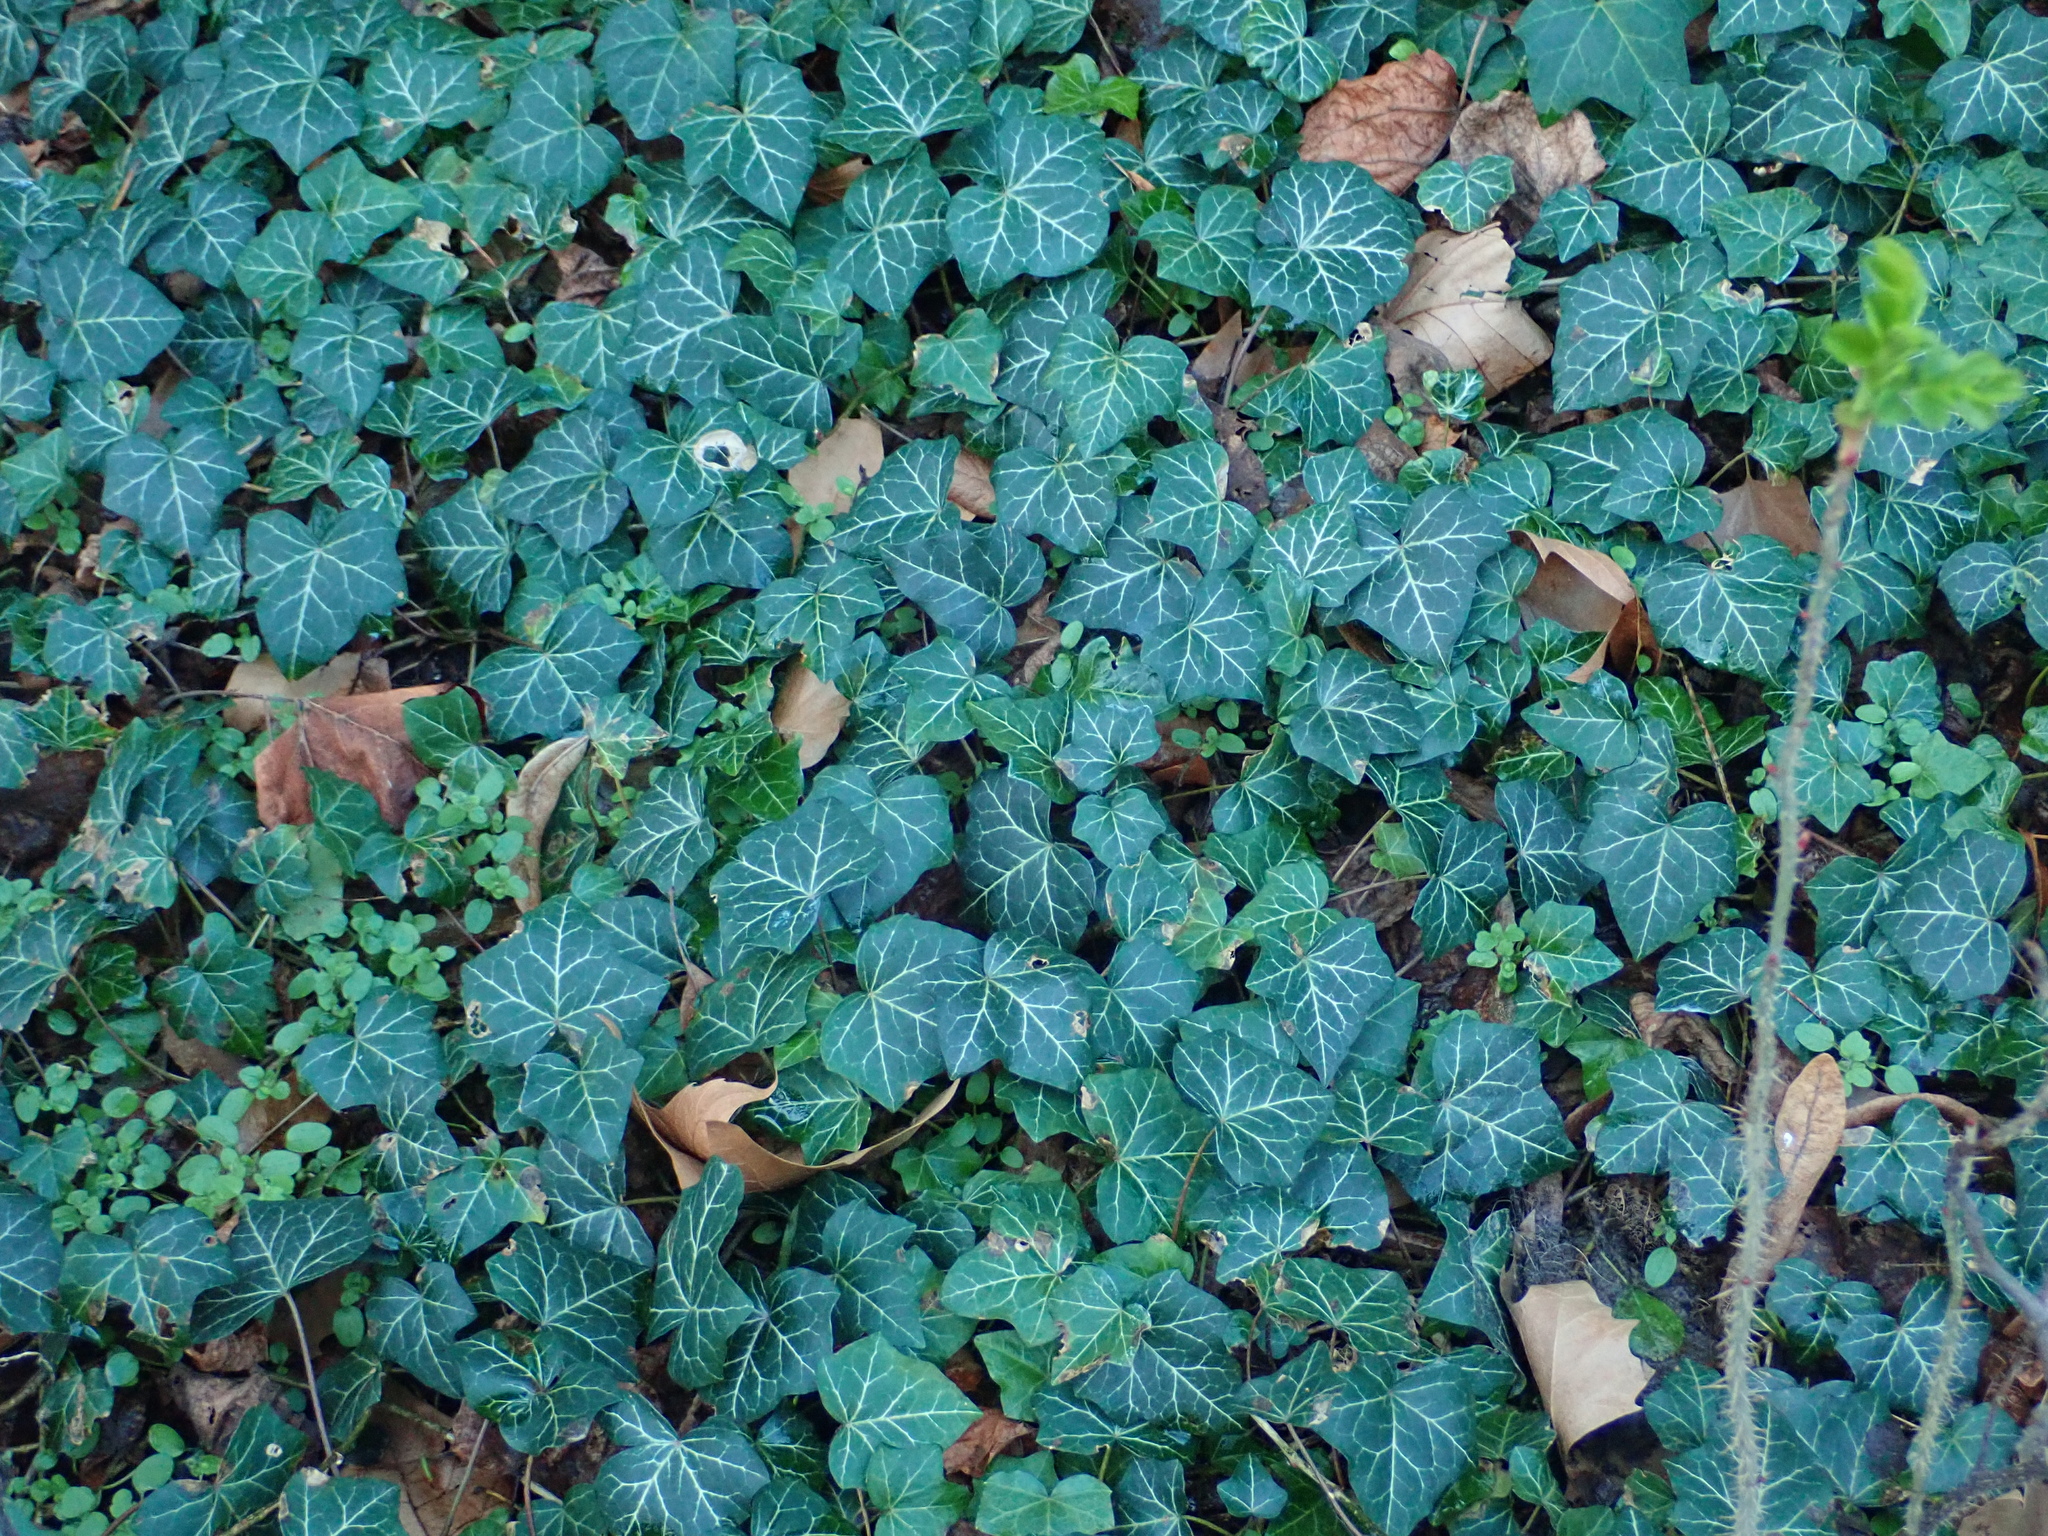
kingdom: Plantae
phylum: Tracheophyta
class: Magnoliopsida
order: Apiales
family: Araliaceae
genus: Hedera
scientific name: Hedera helix
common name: Ivy
